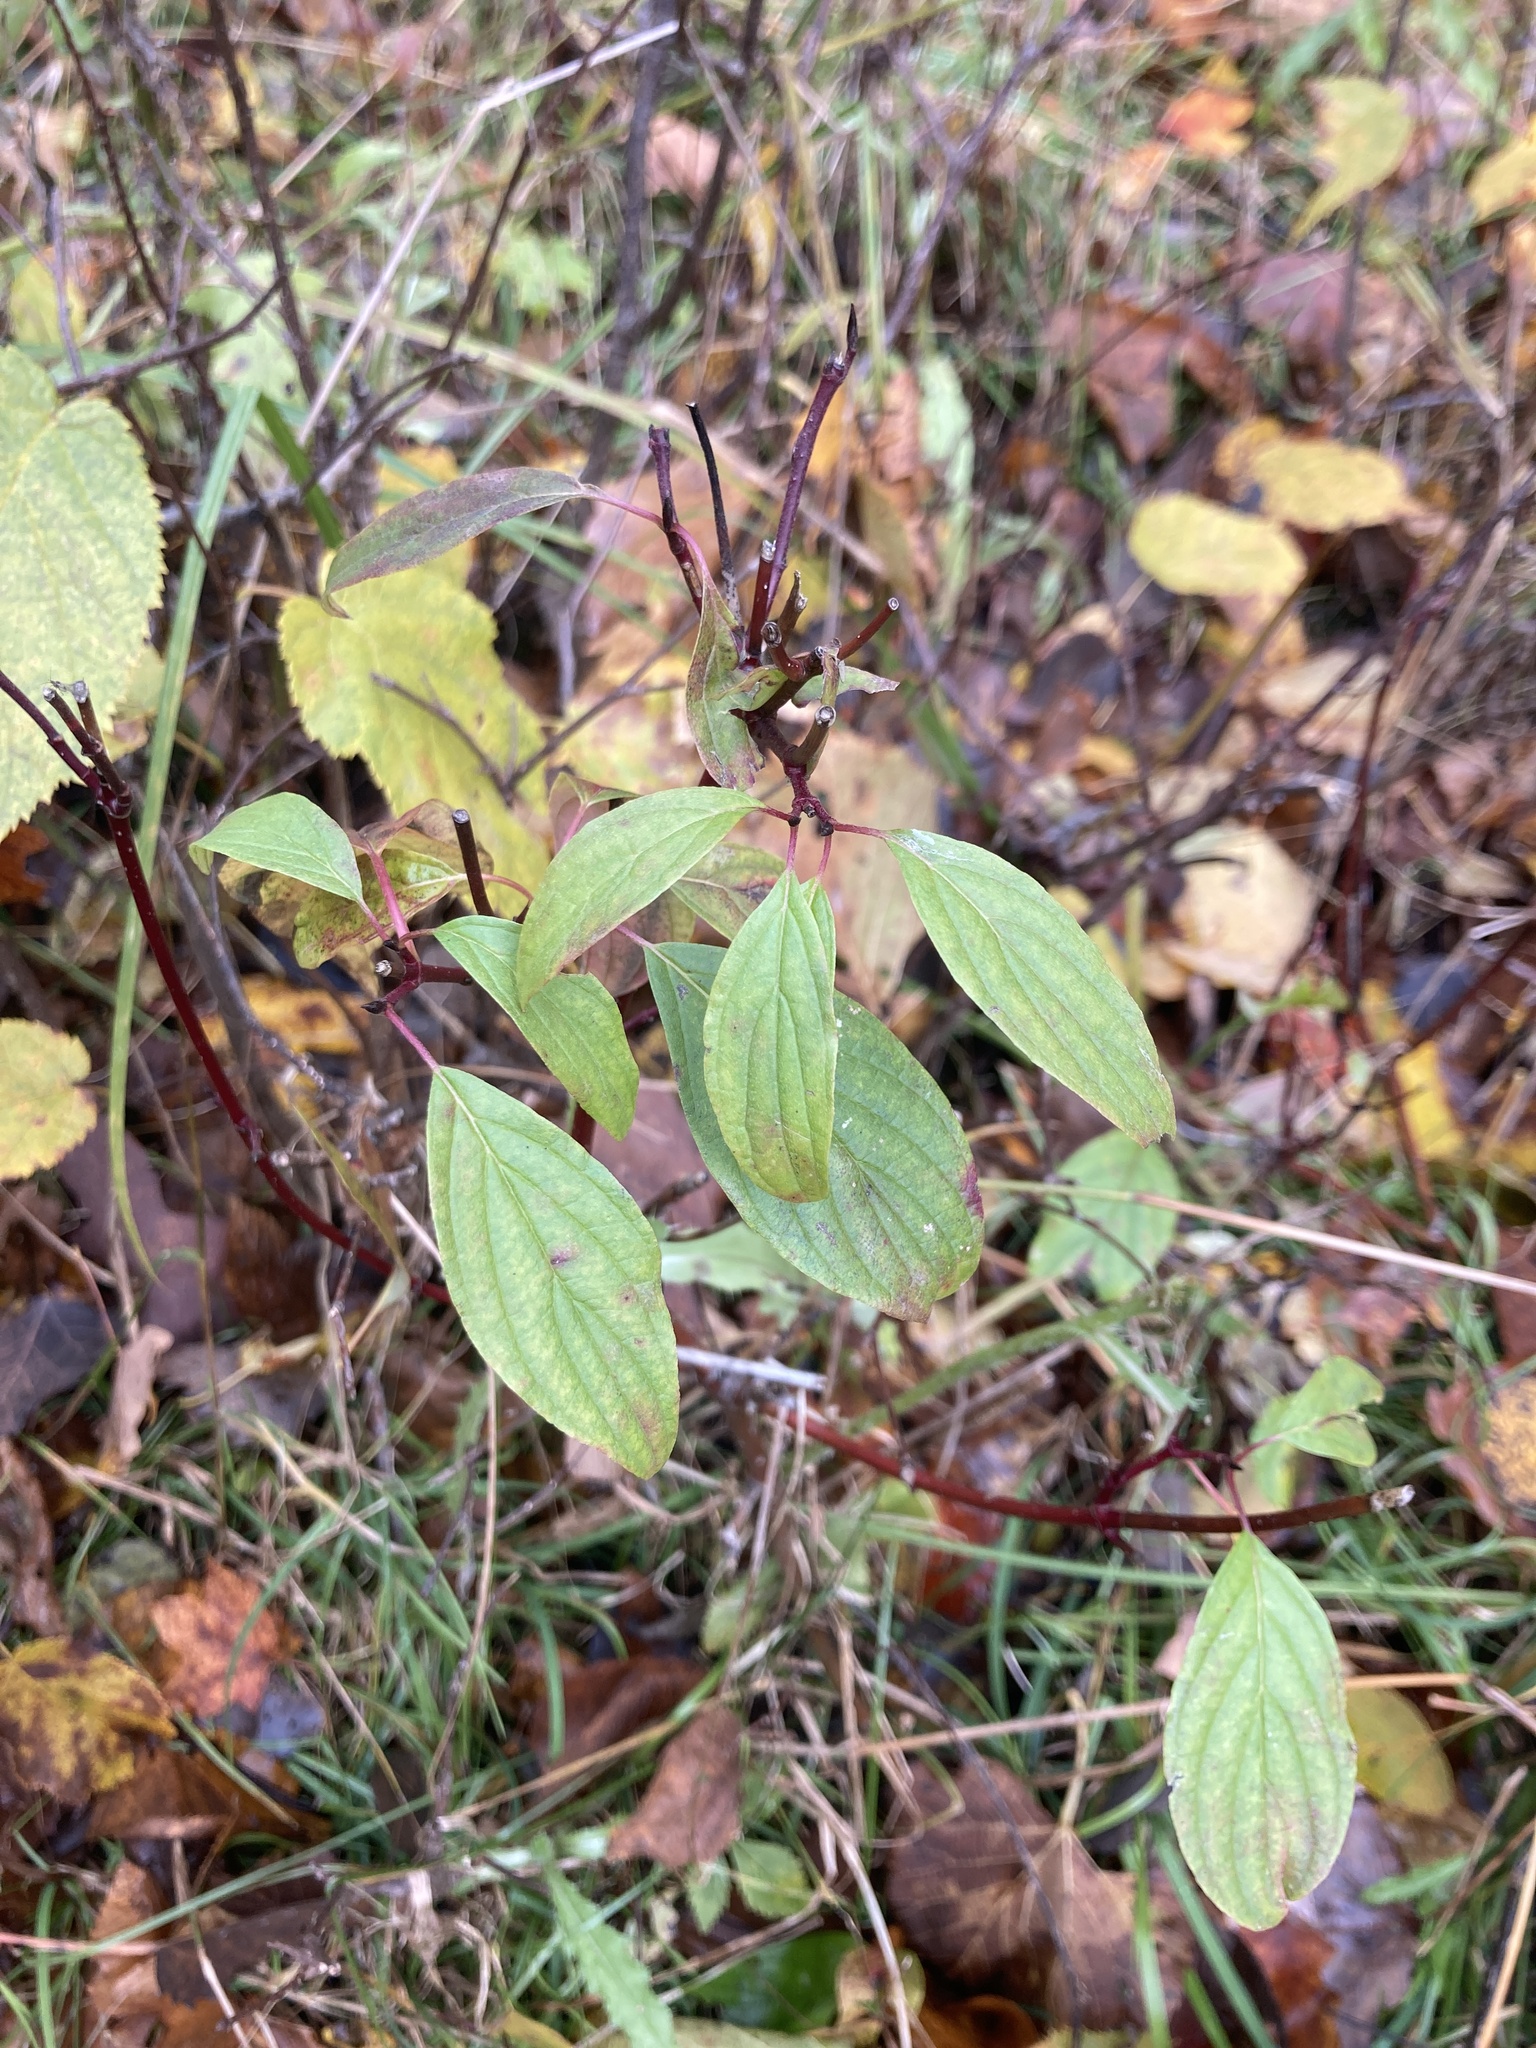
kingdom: Plantae
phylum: Tracheophyta
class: Magnoliopsida
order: Cornales
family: Cornaceae
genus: Cornus
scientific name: Cornus sericea
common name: Red-osier dogwood
